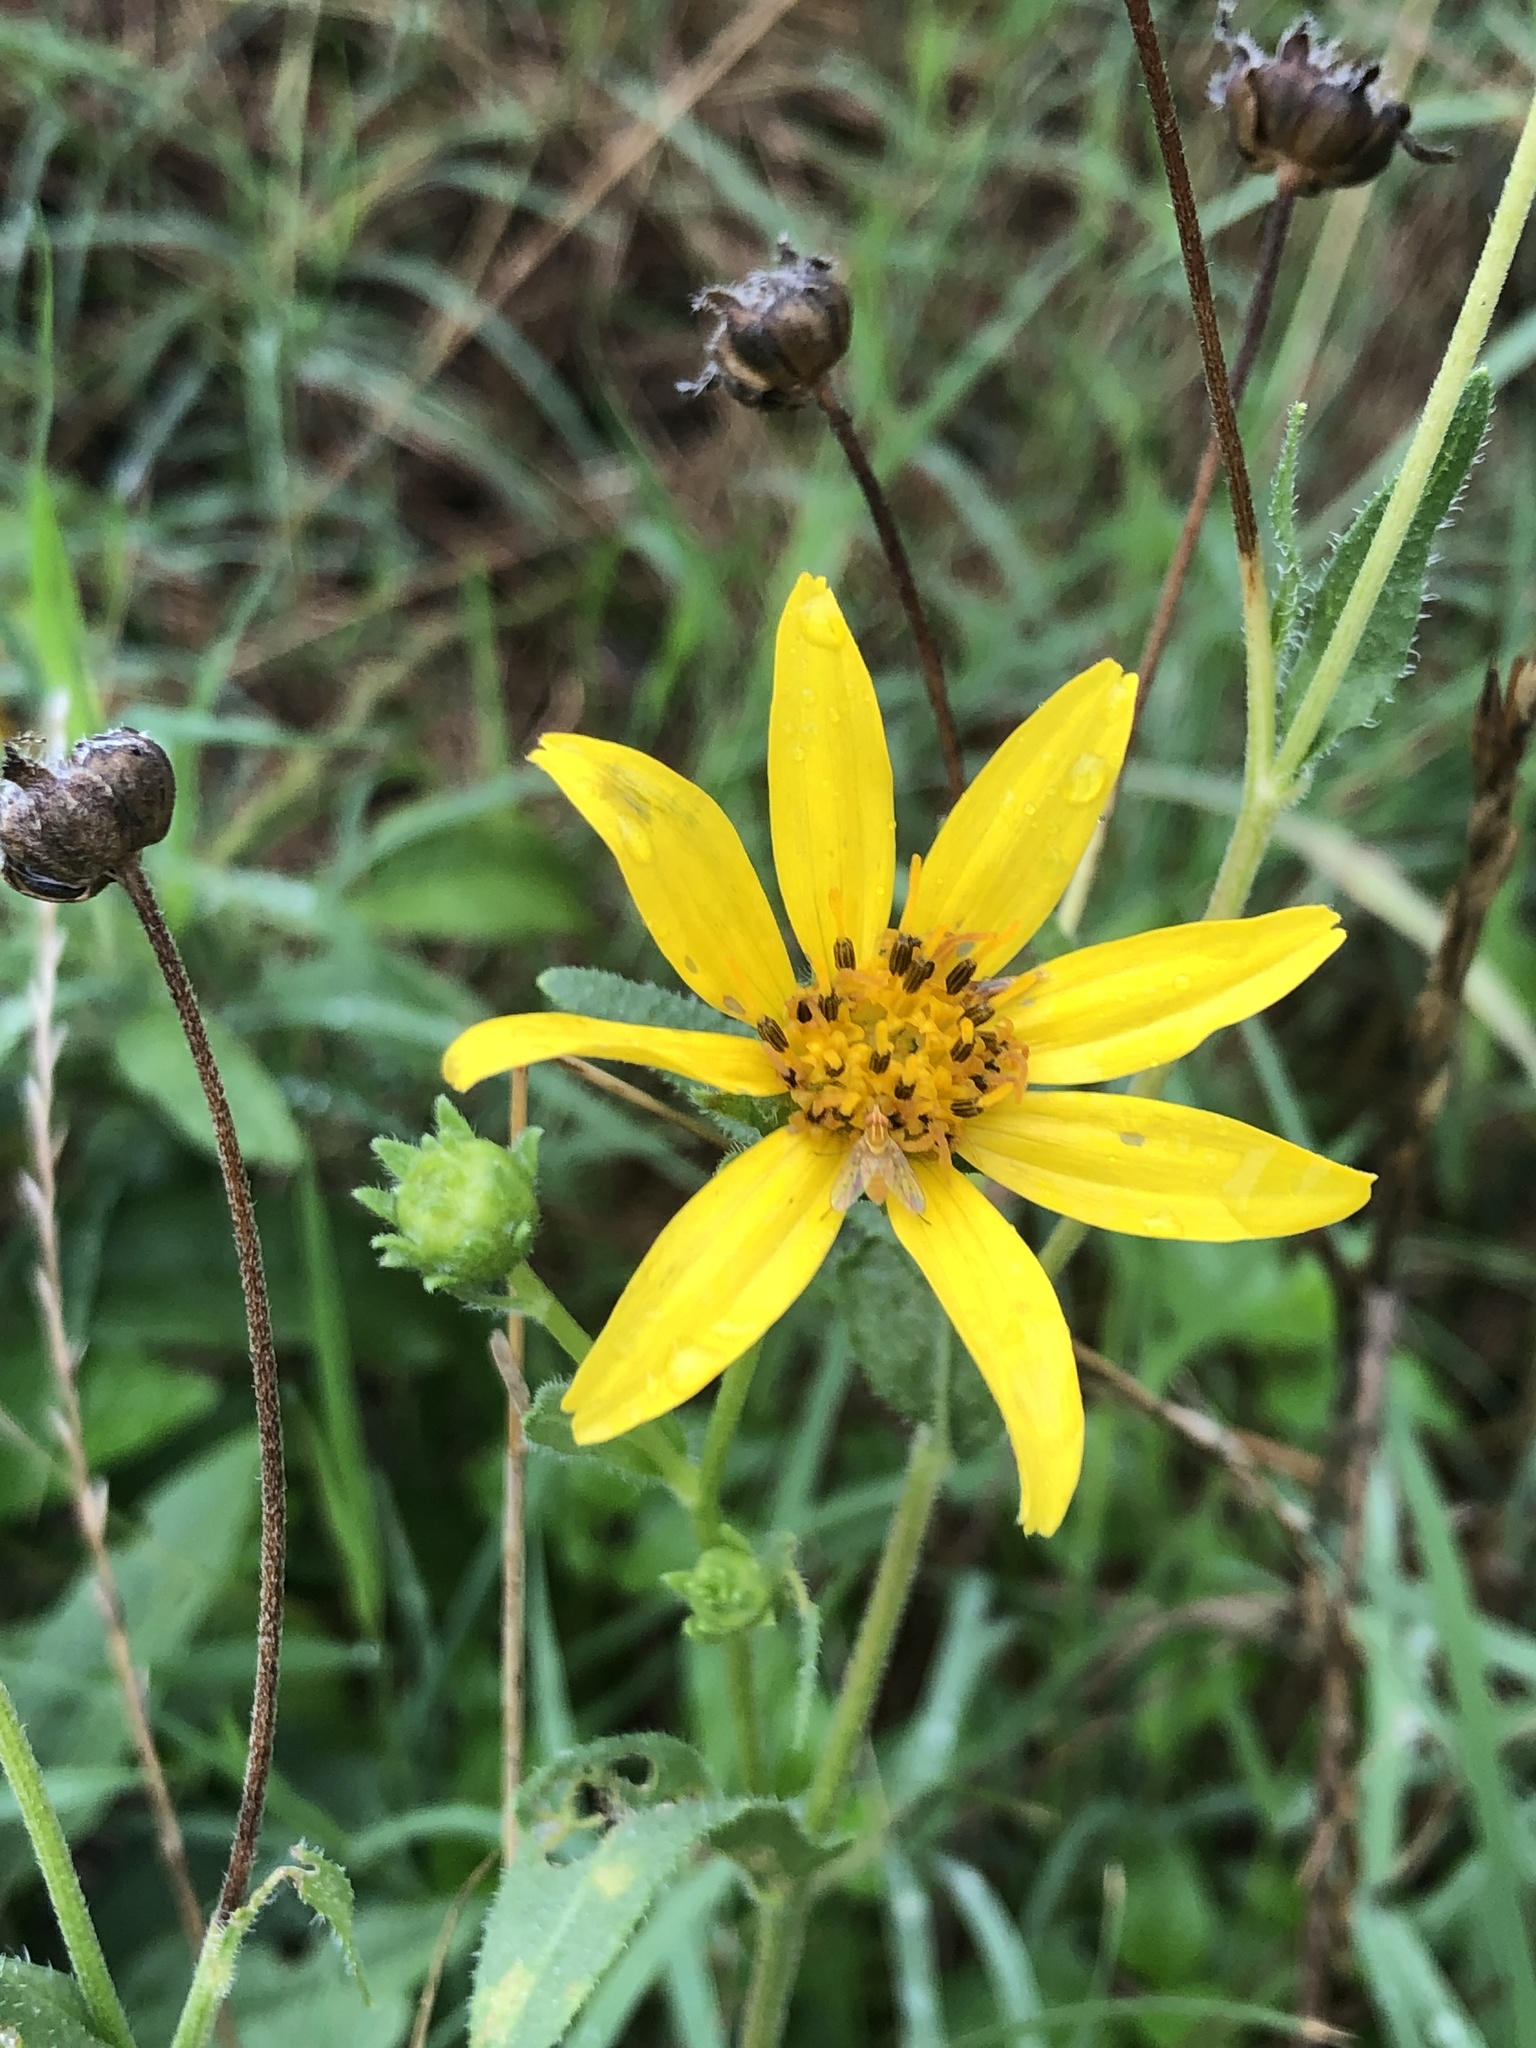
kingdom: Plantae
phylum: Tracheophyta
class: Magnoliopsida
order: Asterales
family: Asteraceae
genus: Engelmannia
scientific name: Engelmannia peristenia
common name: Engelmann's daisy
